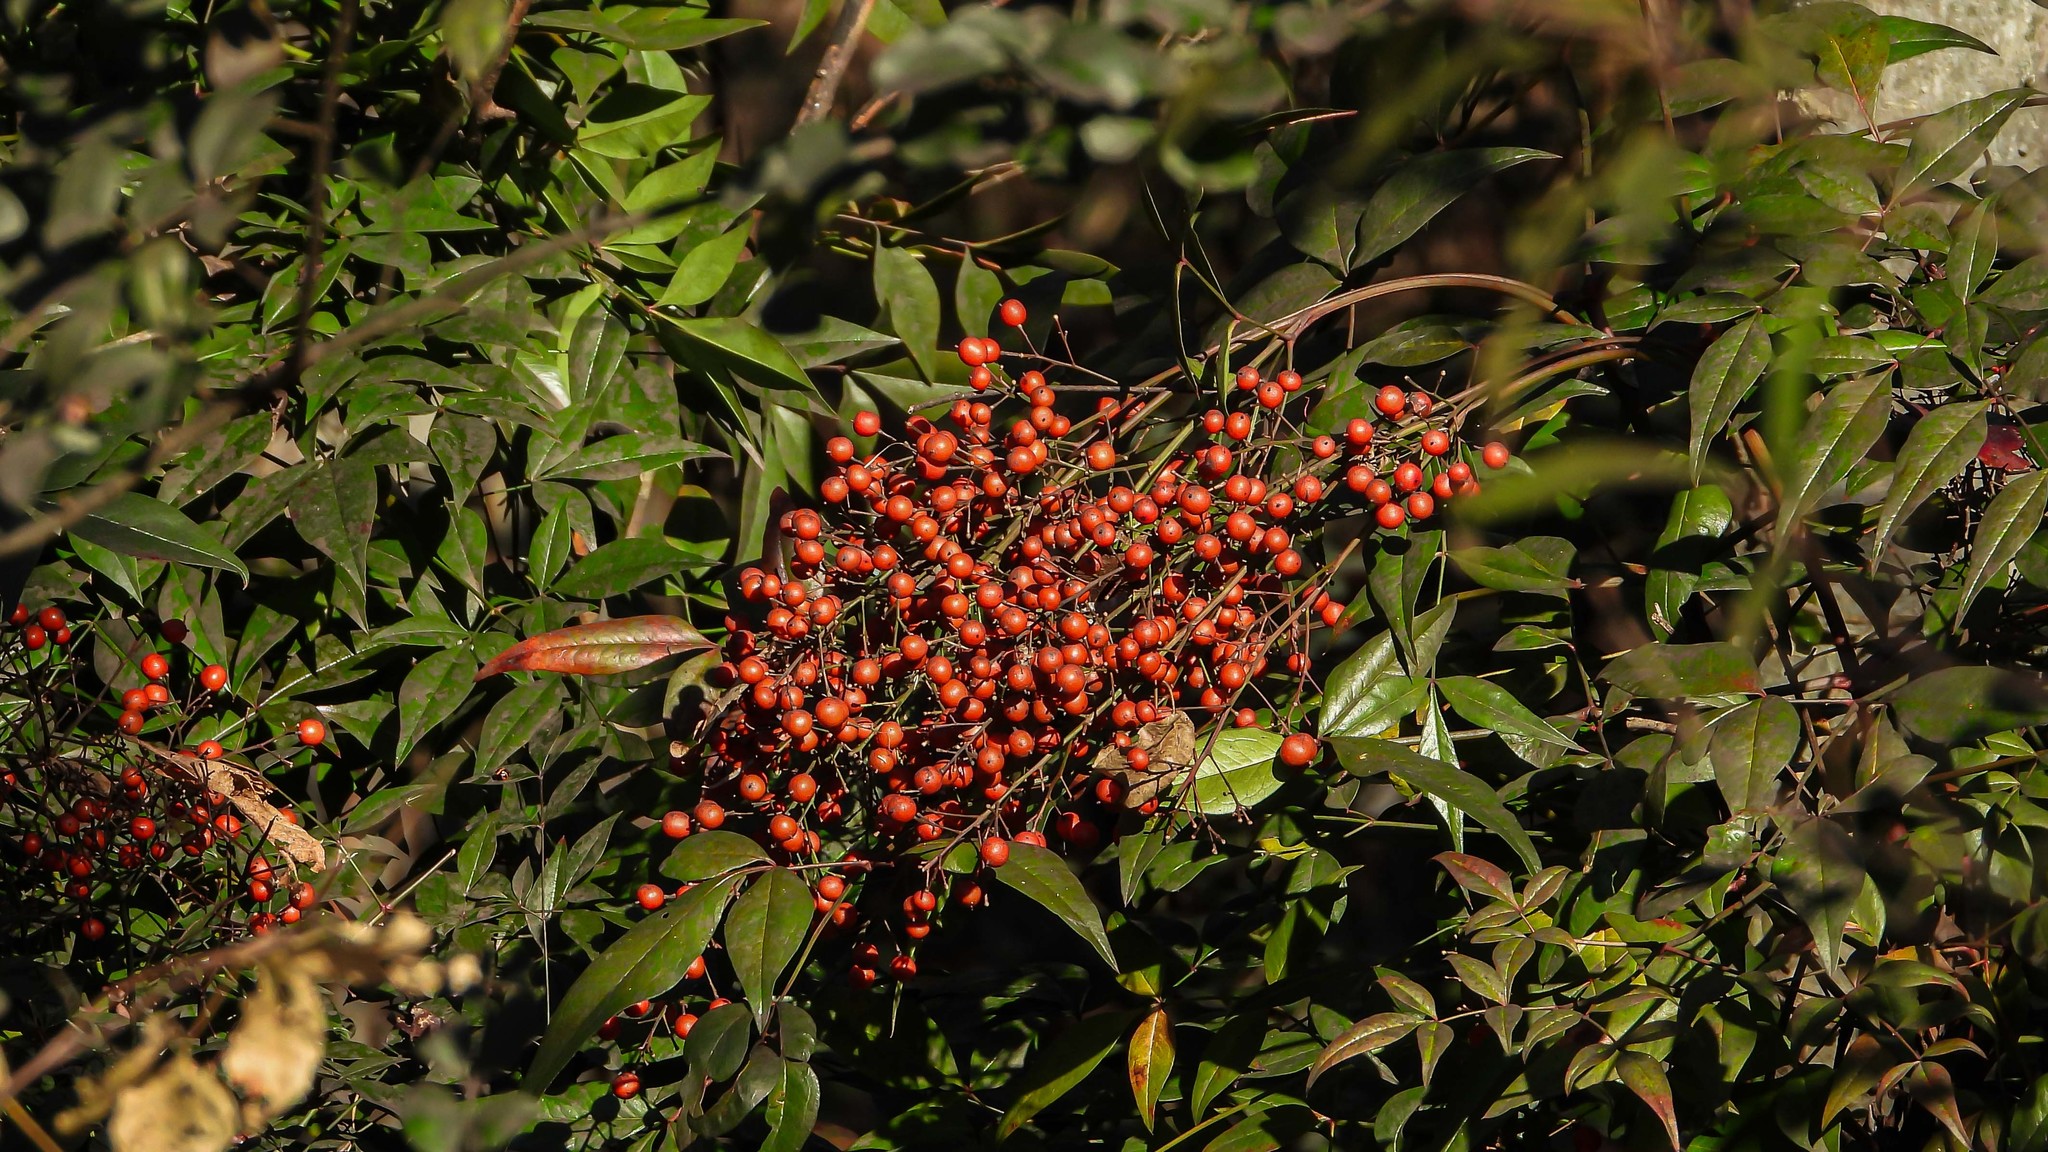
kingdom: Plantae
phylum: Tracheophyta
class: Magnoliopsida
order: Ranunculales
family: Berberidaceae
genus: Nandina
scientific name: Nandina domestica
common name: Sacred bamboo
